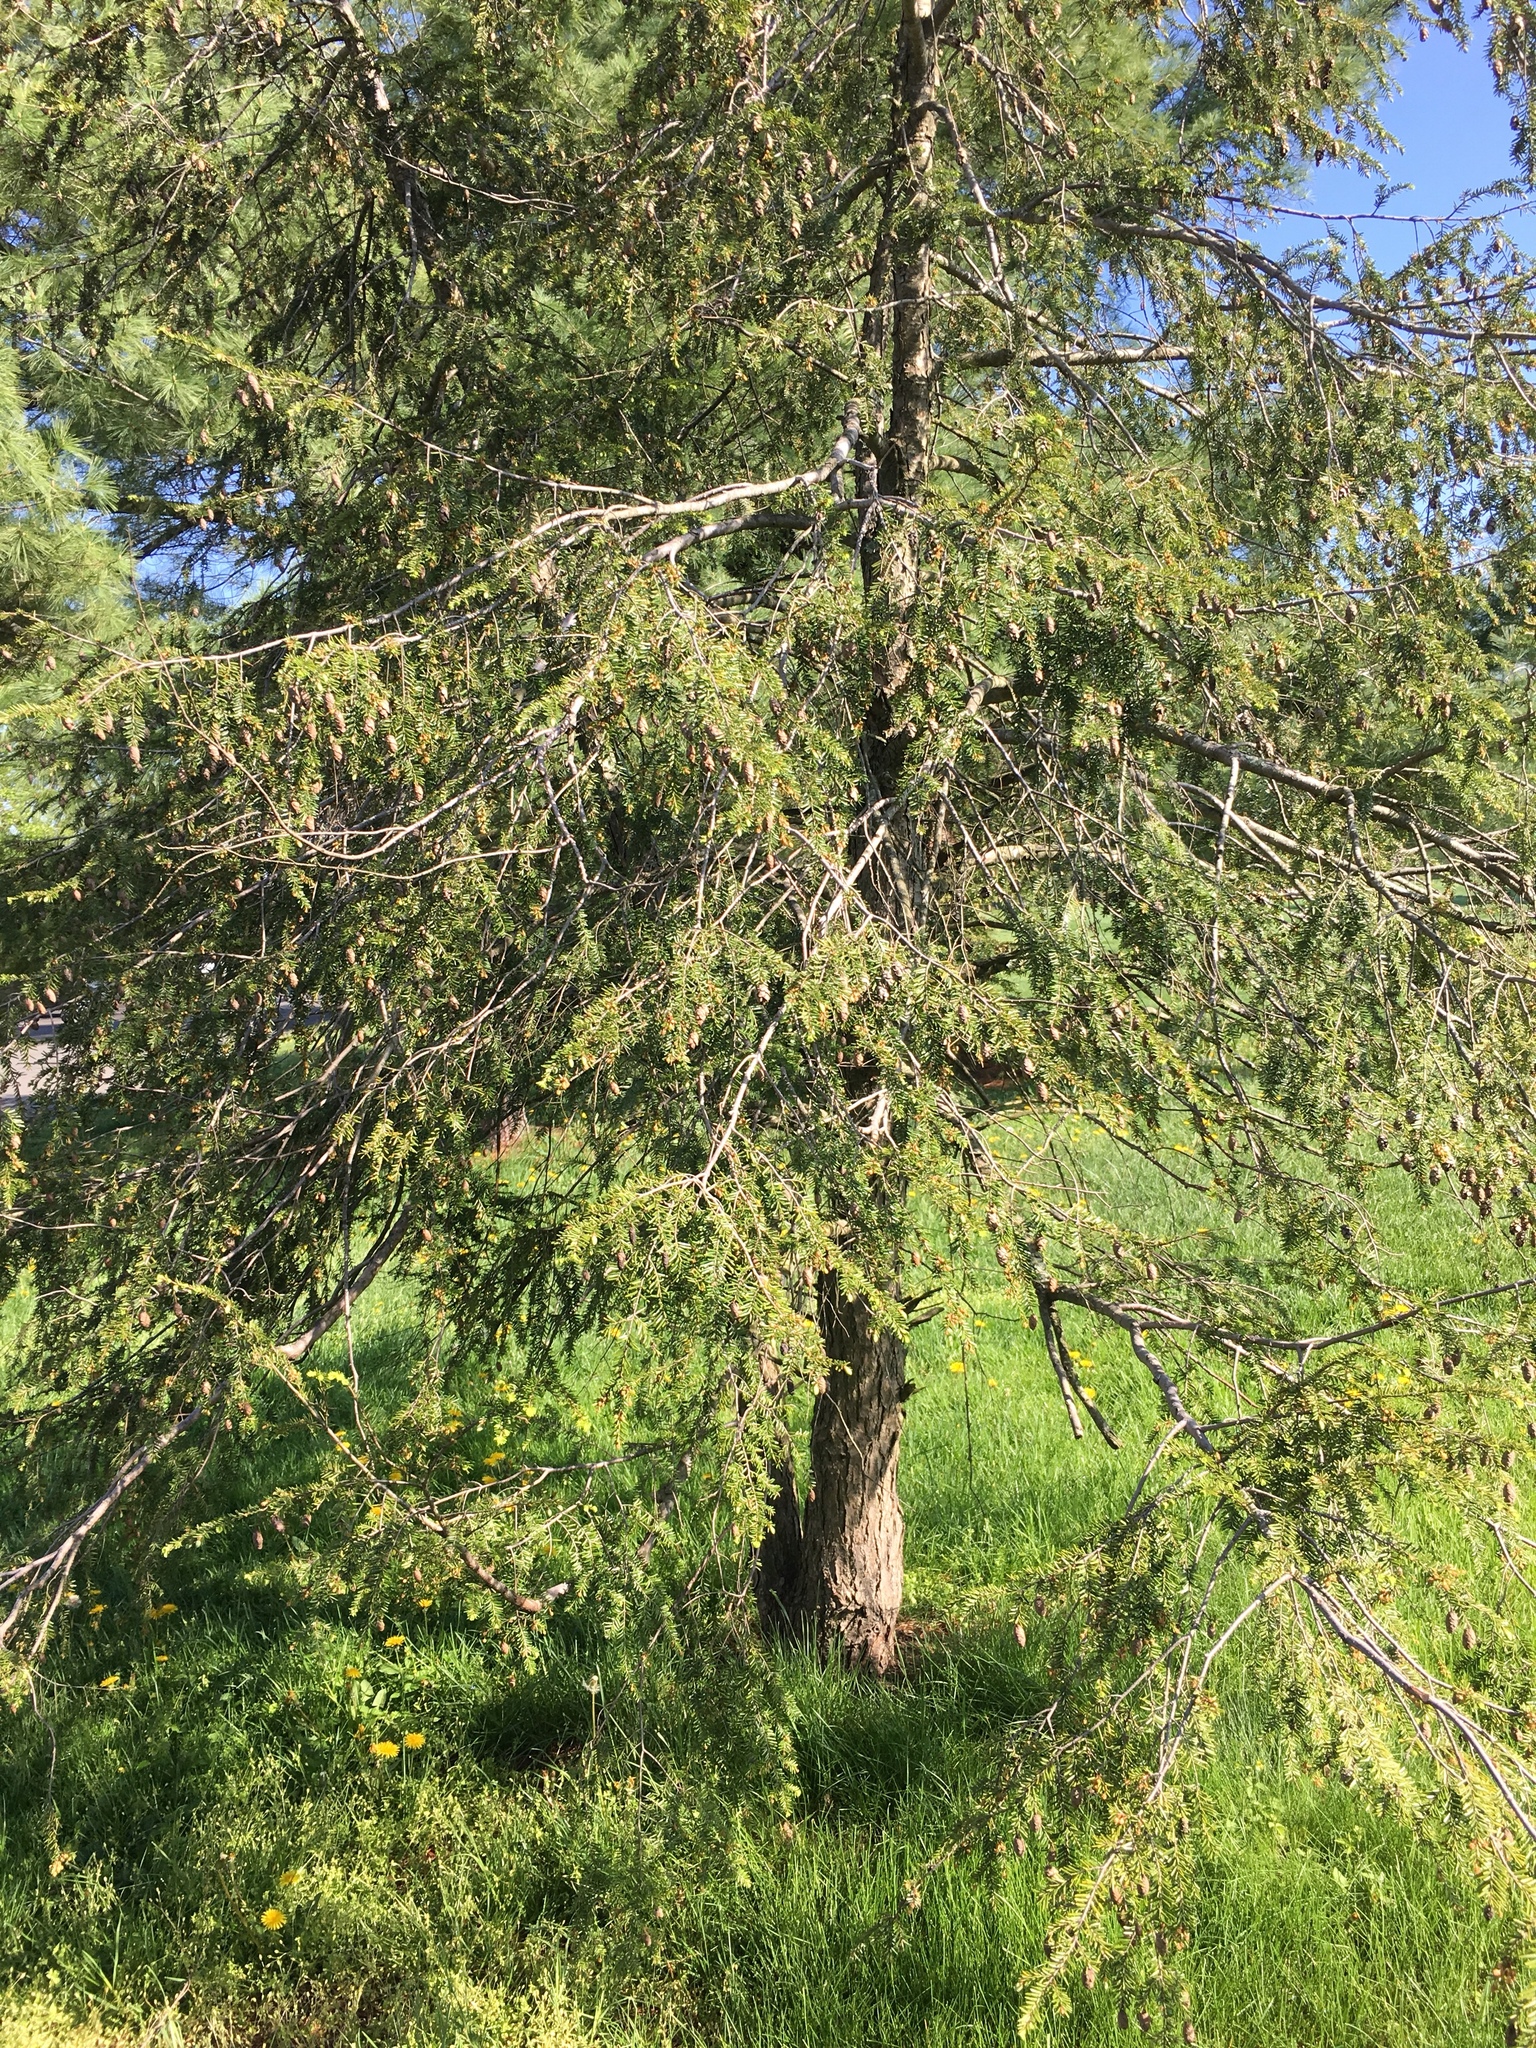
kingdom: Plantae
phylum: Tracheophyta
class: Pinopsida
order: Pinales
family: Pinaceae
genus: Tsuga
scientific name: Tsuga canadensis
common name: Eastern hemlock
